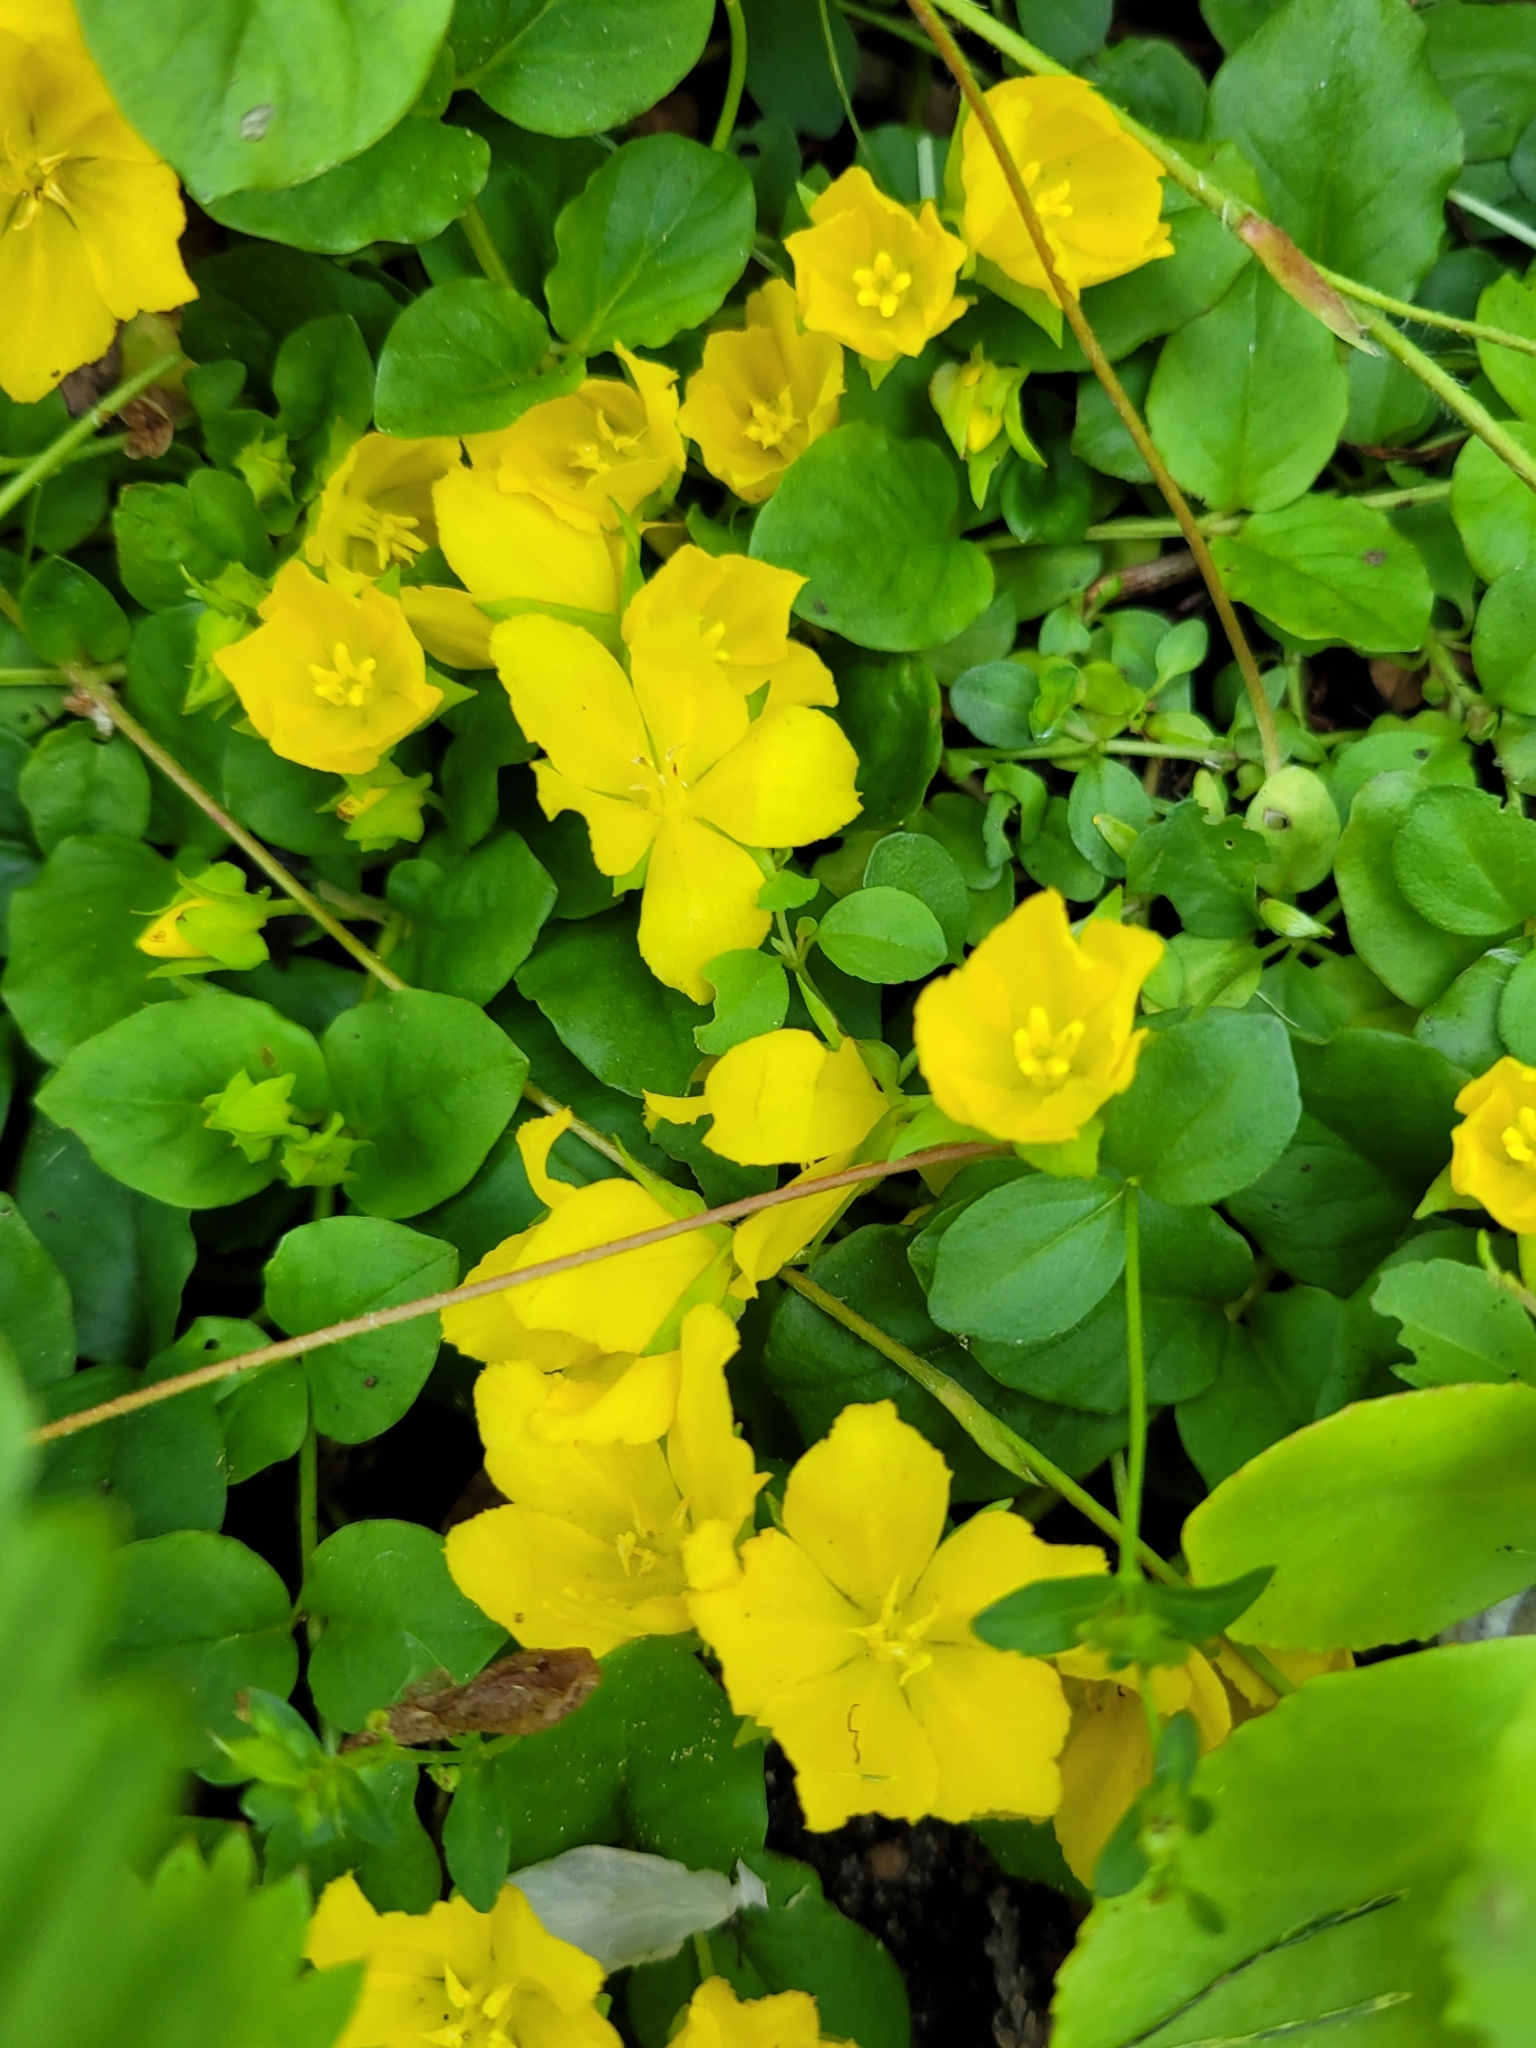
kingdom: Plantae
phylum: Tracheophyta
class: Magnoliopsida
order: Ericales
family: Primulaceae
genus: Lysimachia
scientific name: Lysimachia nummularia
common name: Moneywort
